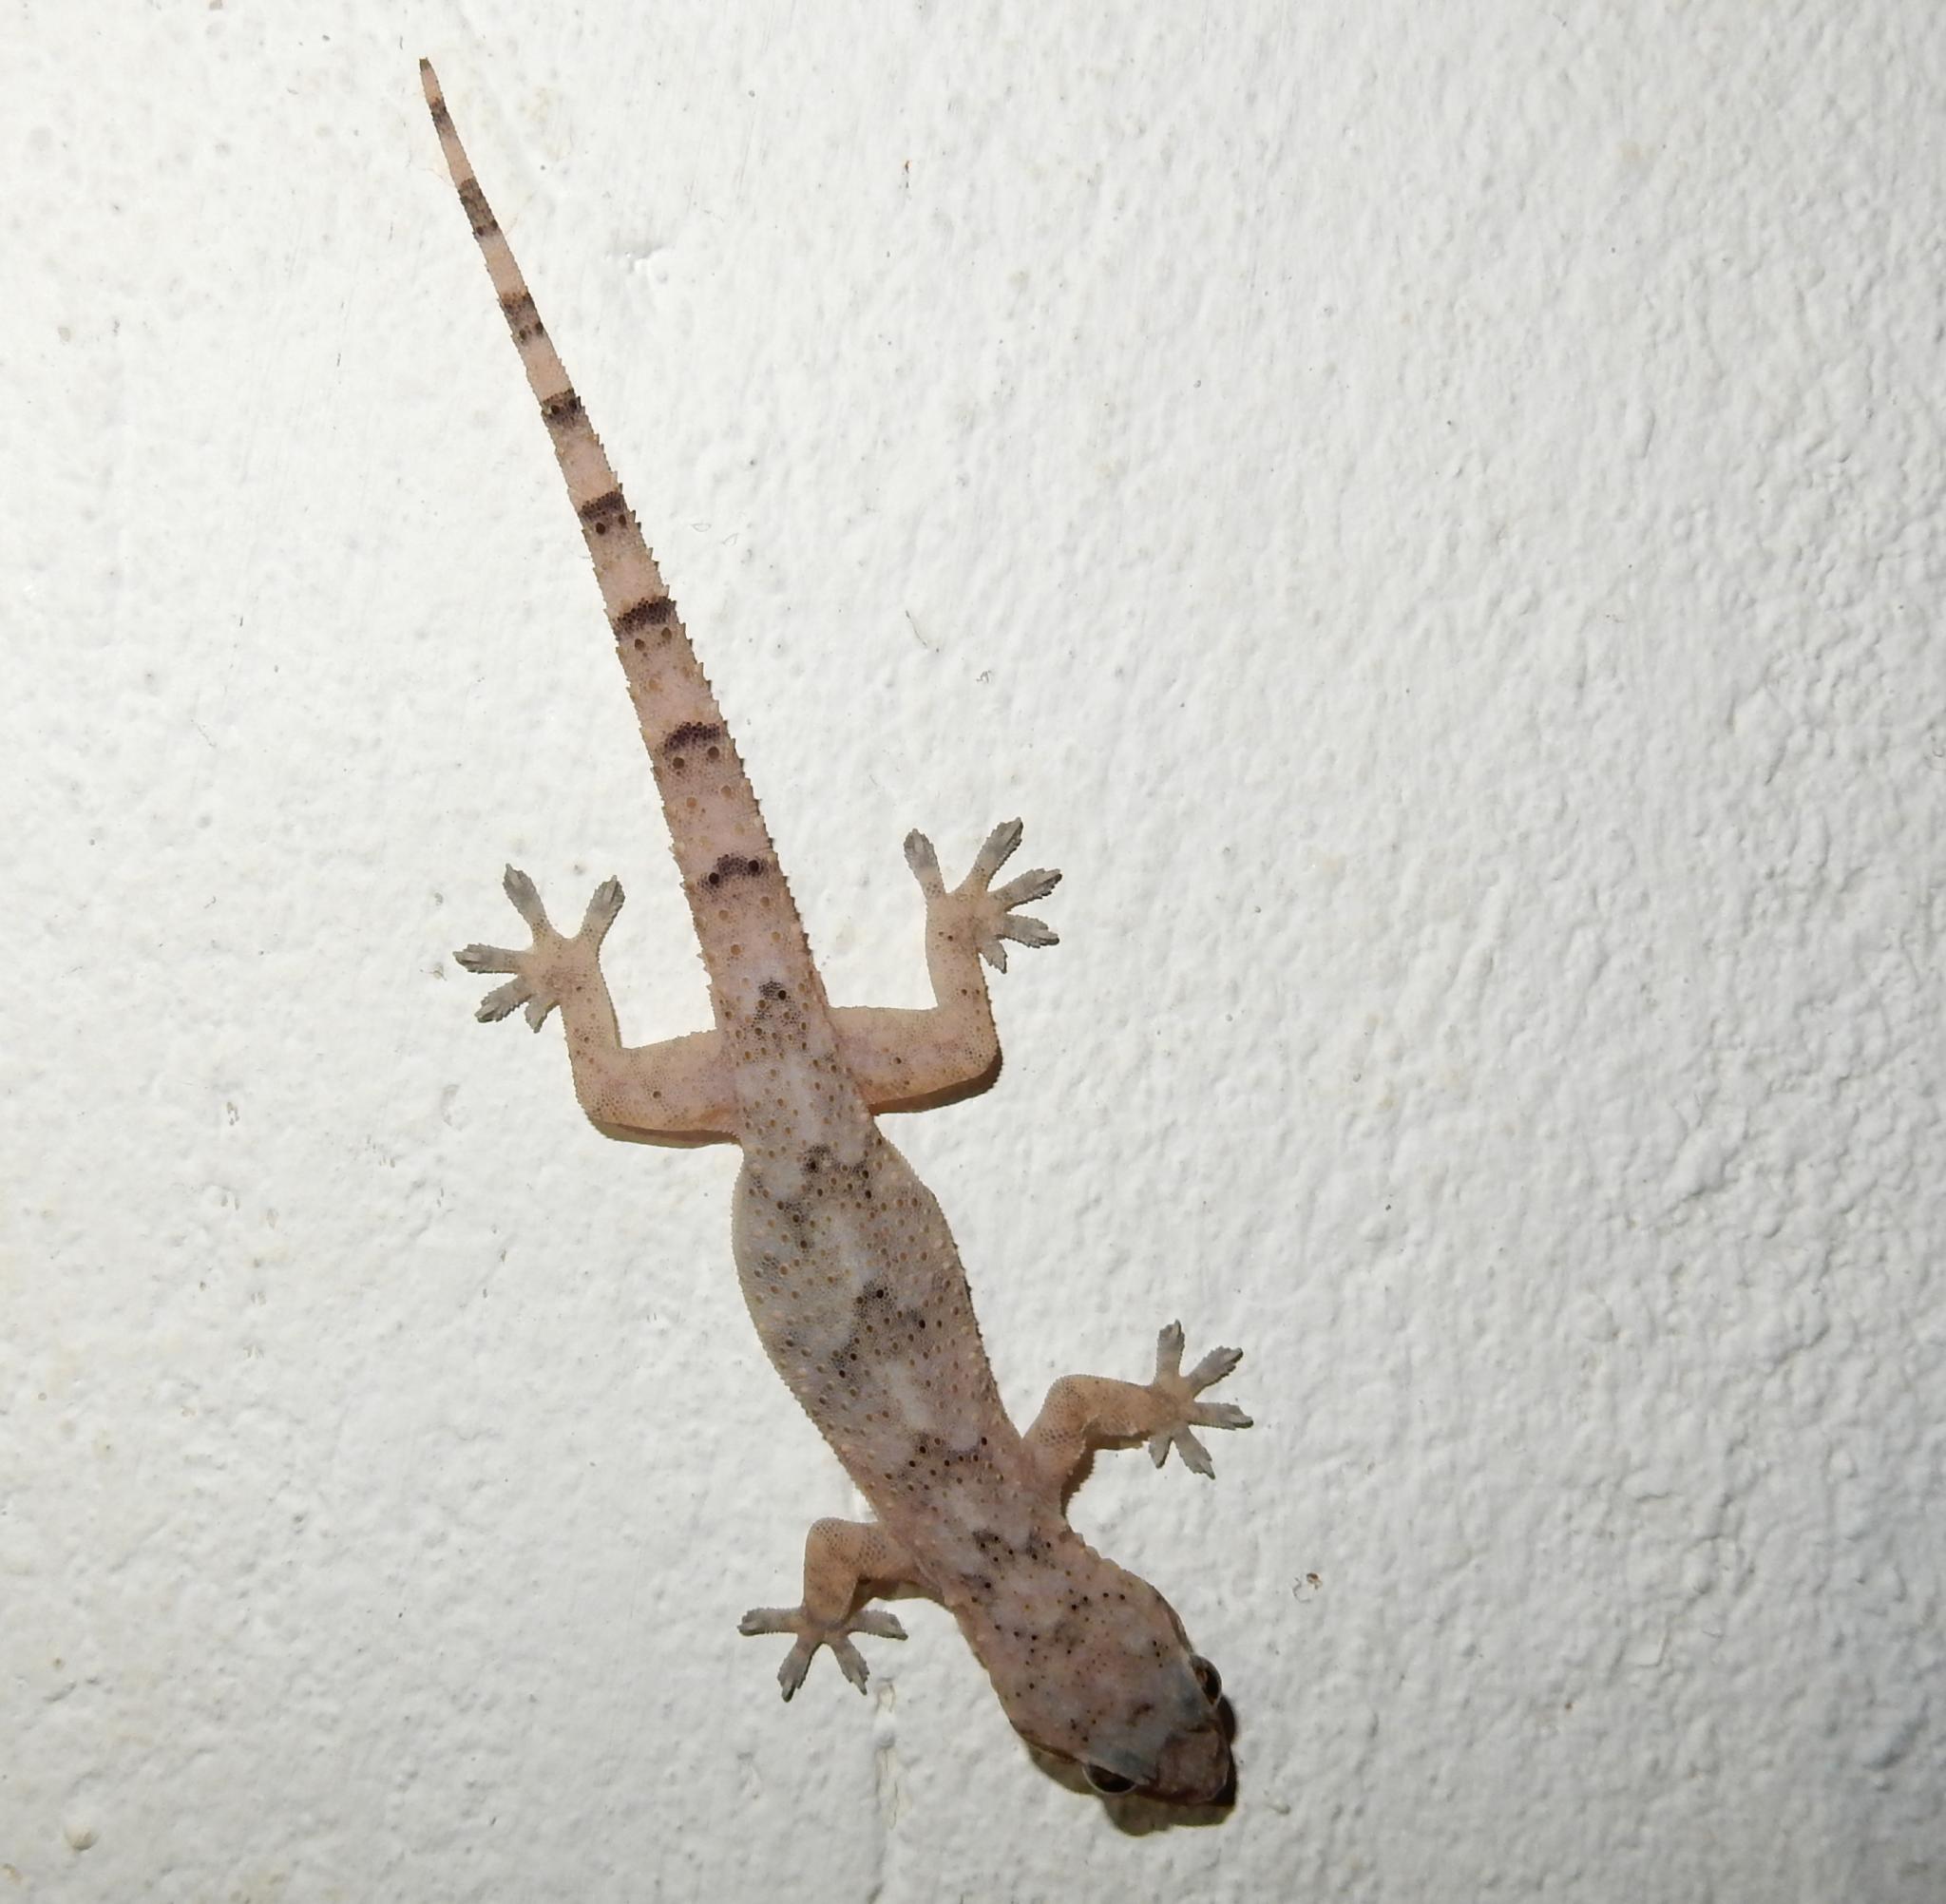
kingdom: Animalia
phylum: Chordata
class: Squamata
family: Gekkonidae
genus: Hemidactylus
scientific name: Hemidactylus mabouia
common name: House gecko
